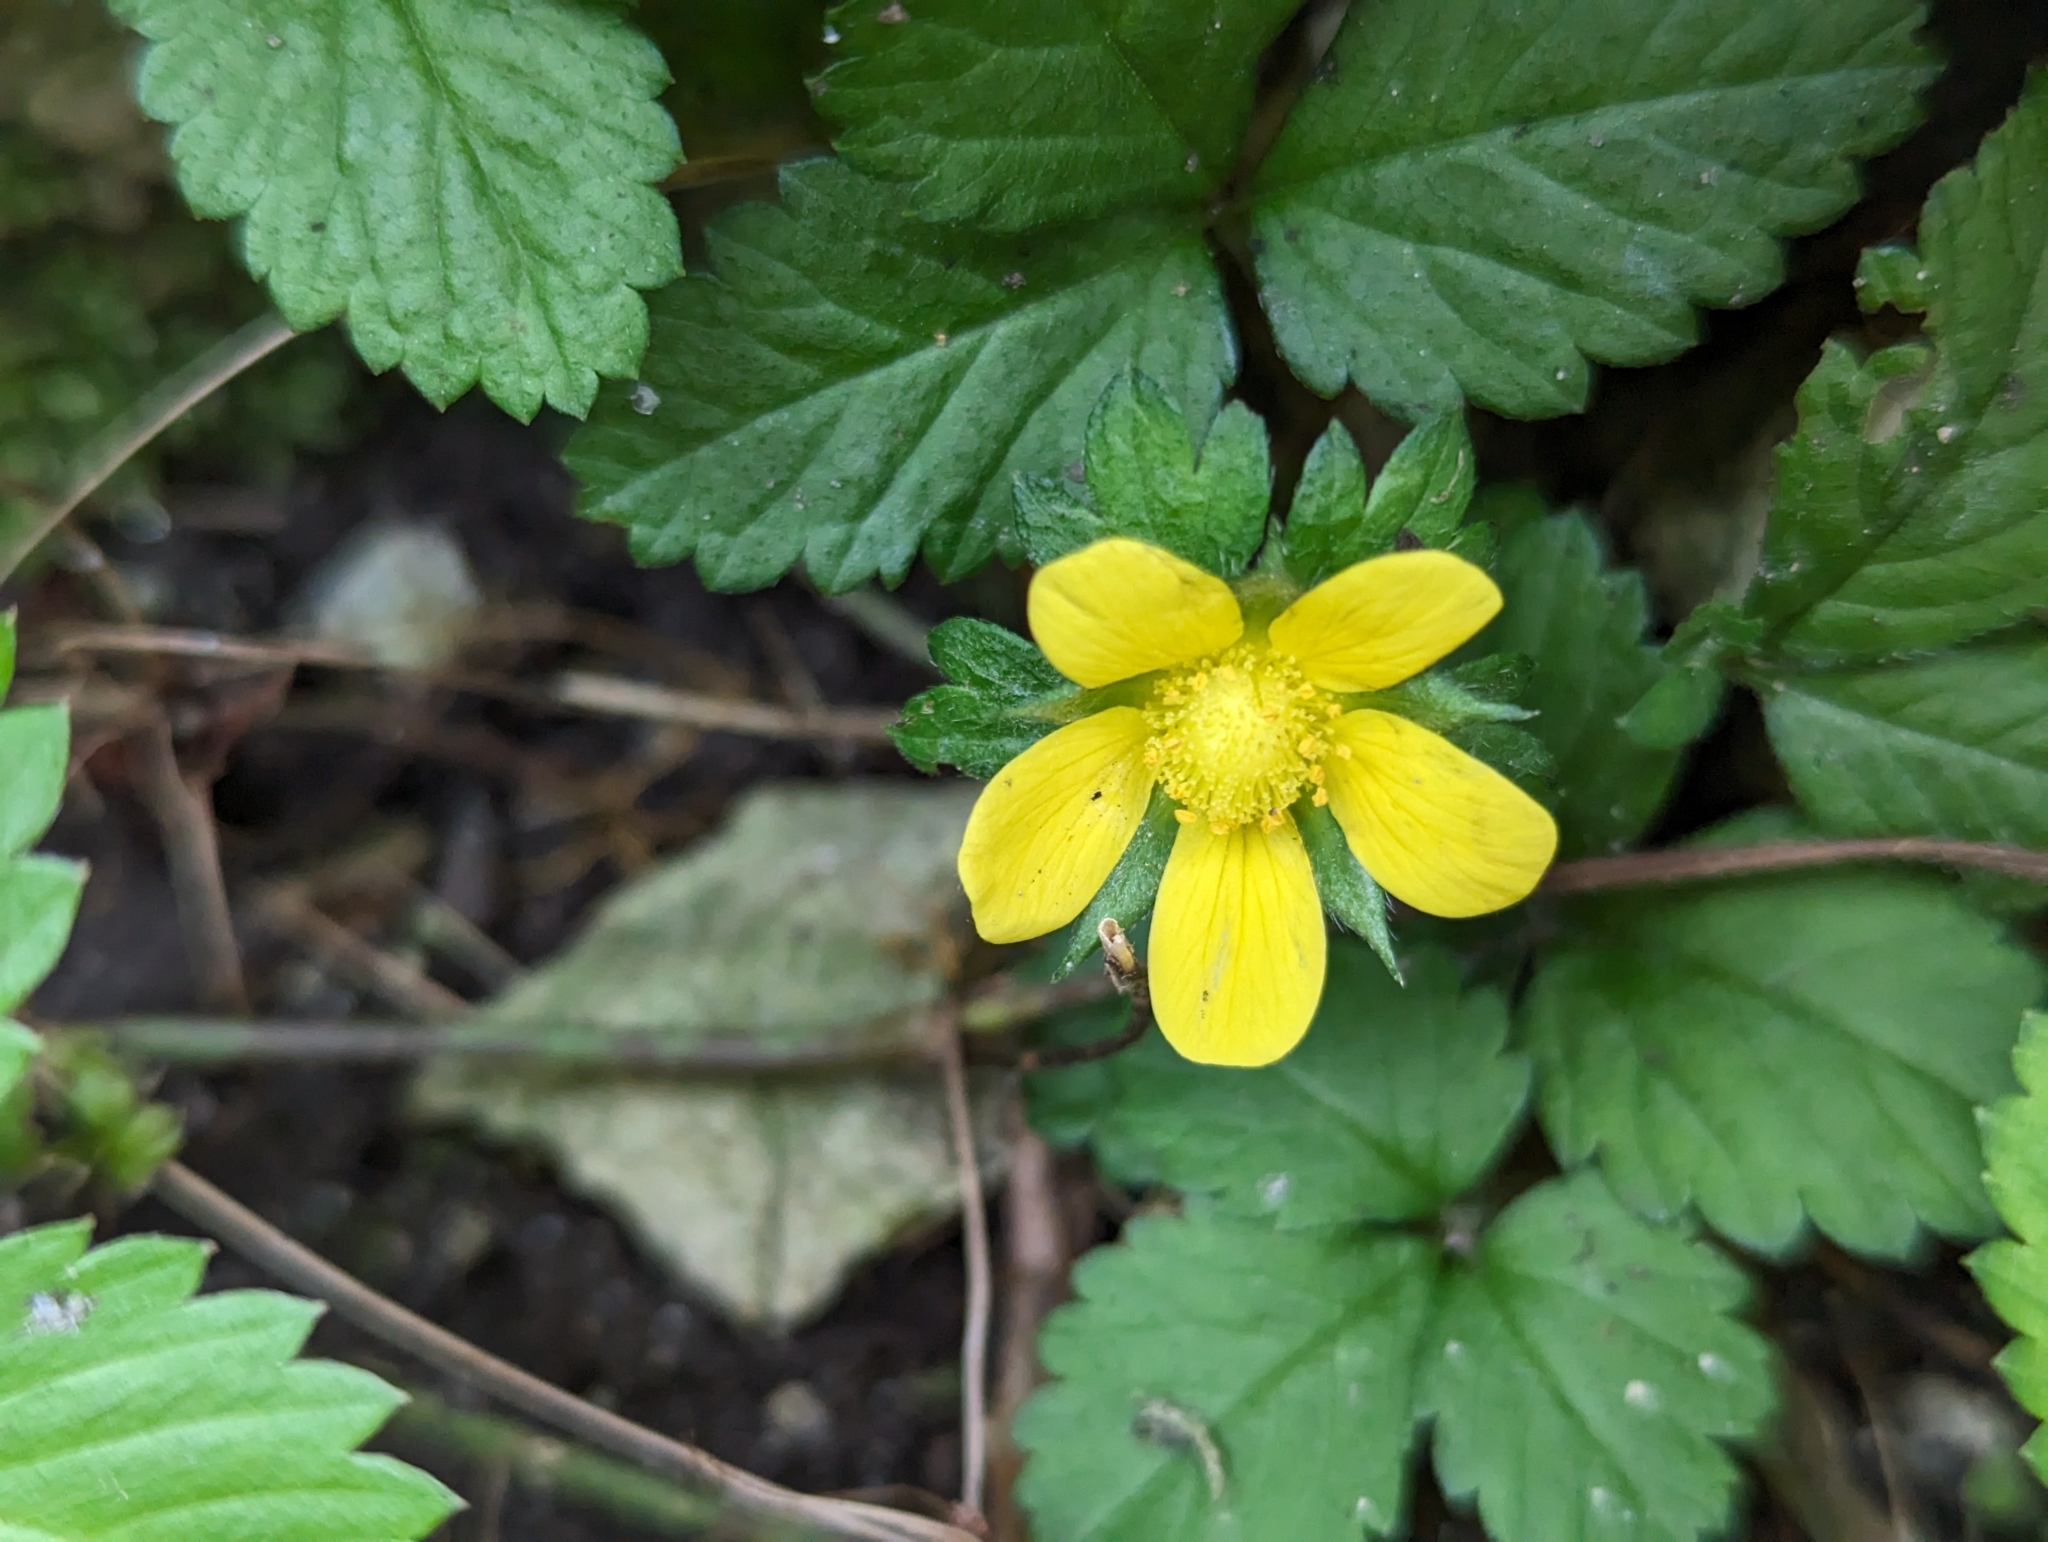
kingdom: Plantae
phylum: Tracheophyta
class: Magnoliopsida
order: Rosales
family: Rosaceae
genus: Potentilla
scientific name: Potentilla indica
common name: Yellow-flowered strawberry
